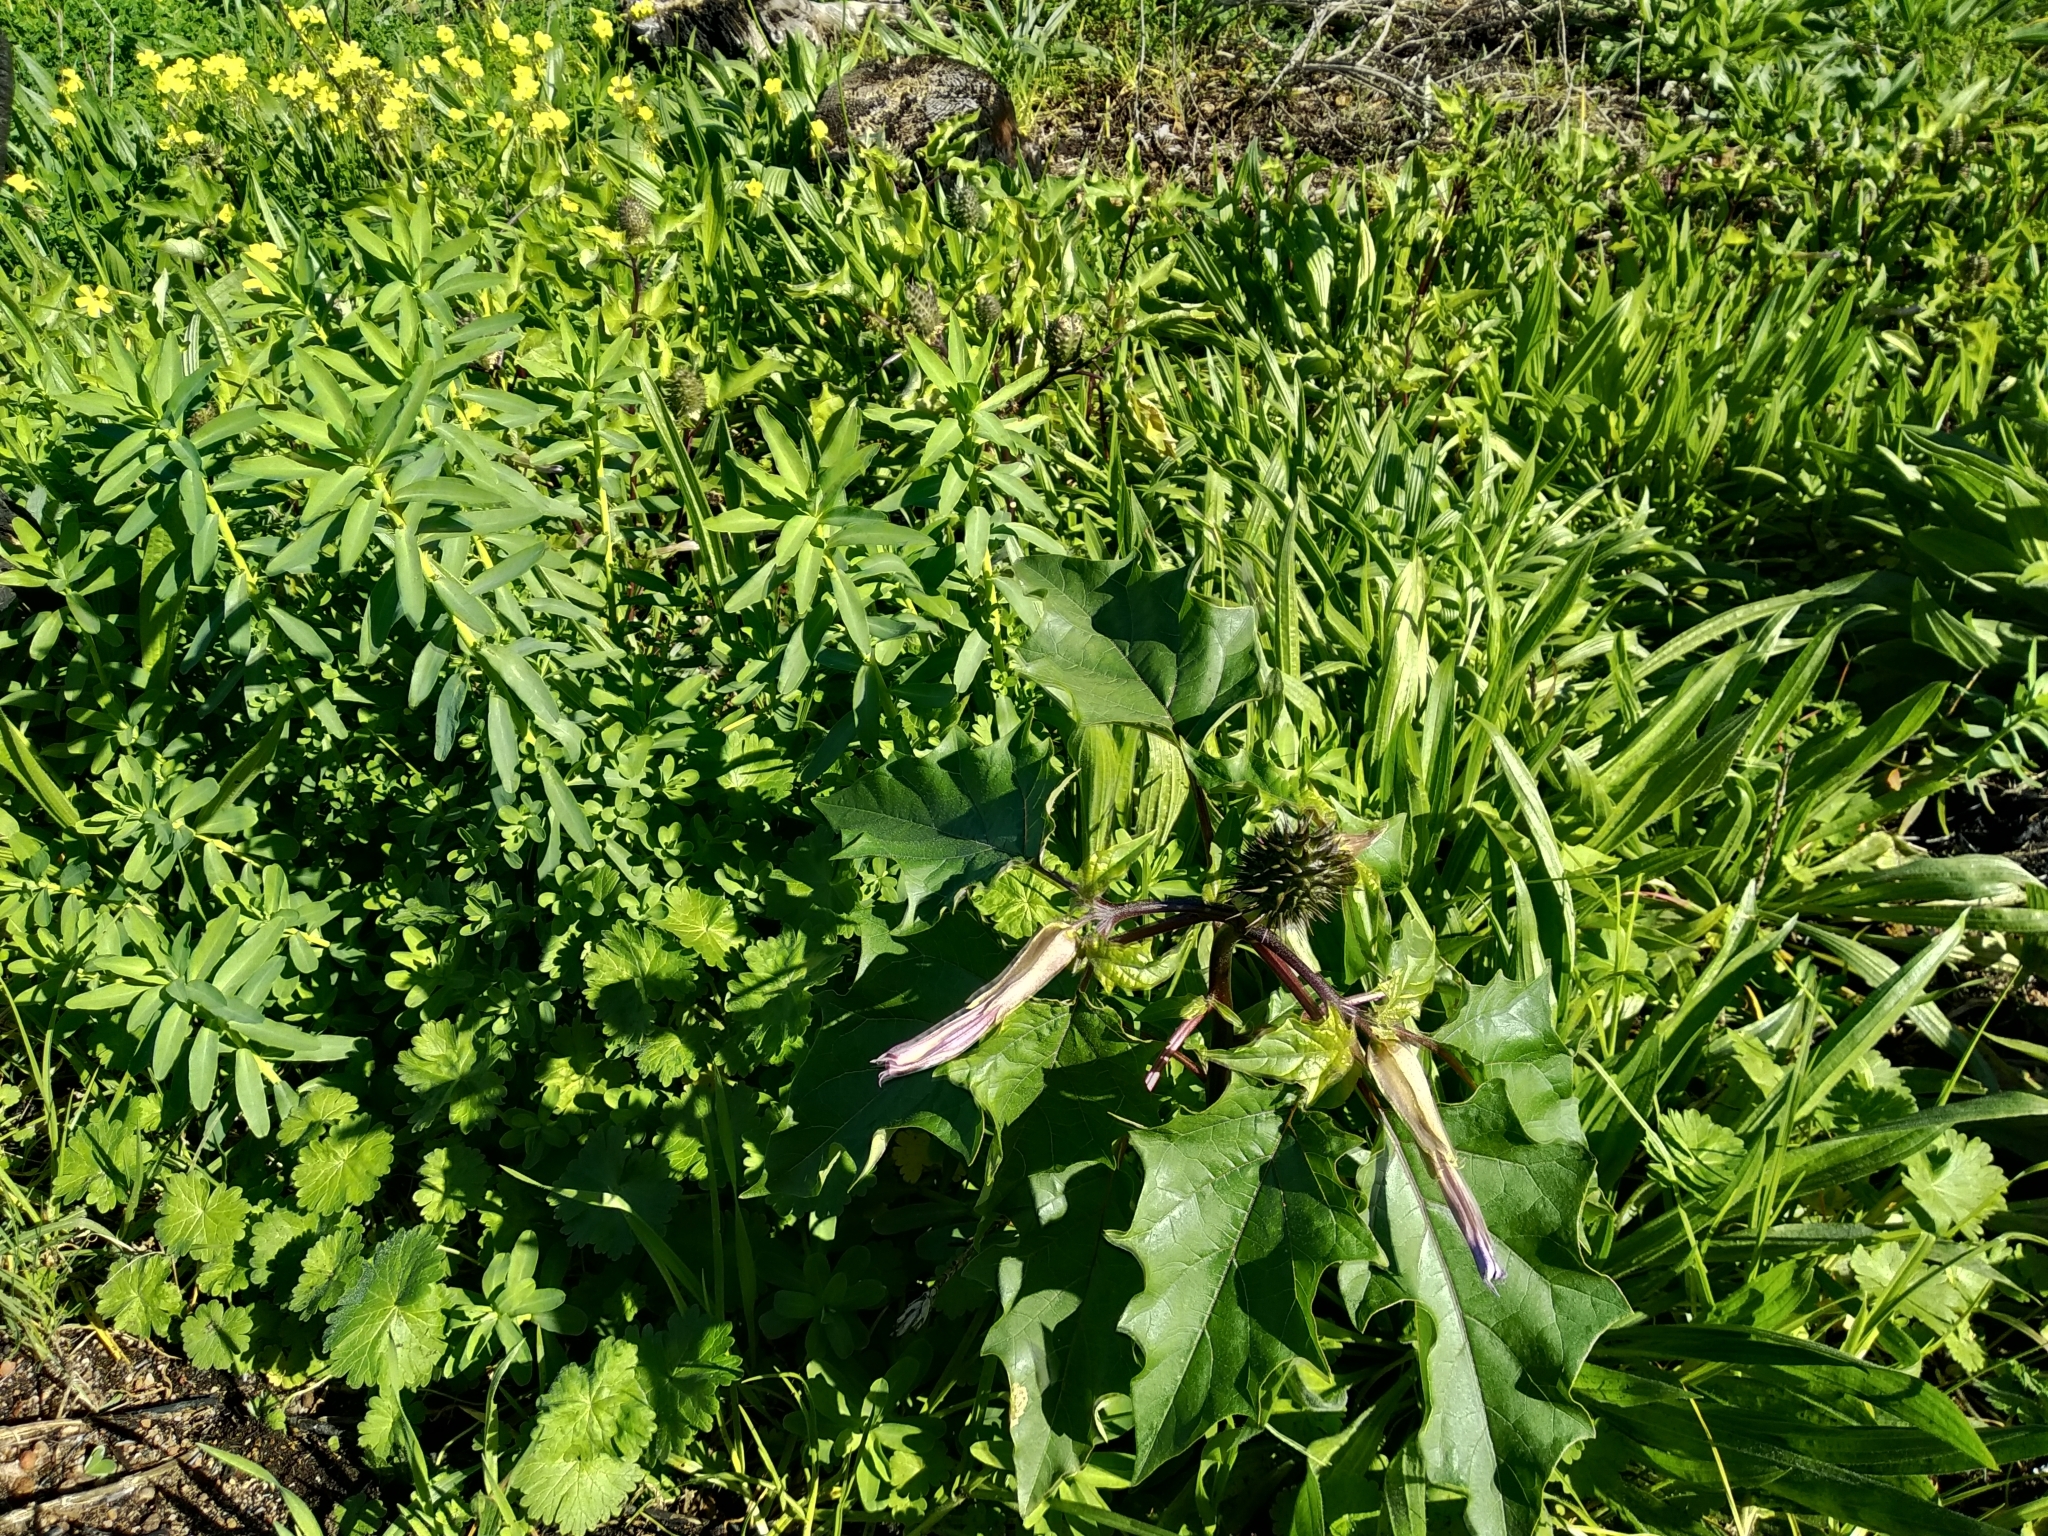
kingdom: Plantae
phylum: Tracheophyta
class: Magnoliopsida
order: Solanales
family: Solanaceae
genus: Datura
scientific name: Datura stramonium
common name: Thorn-apple
